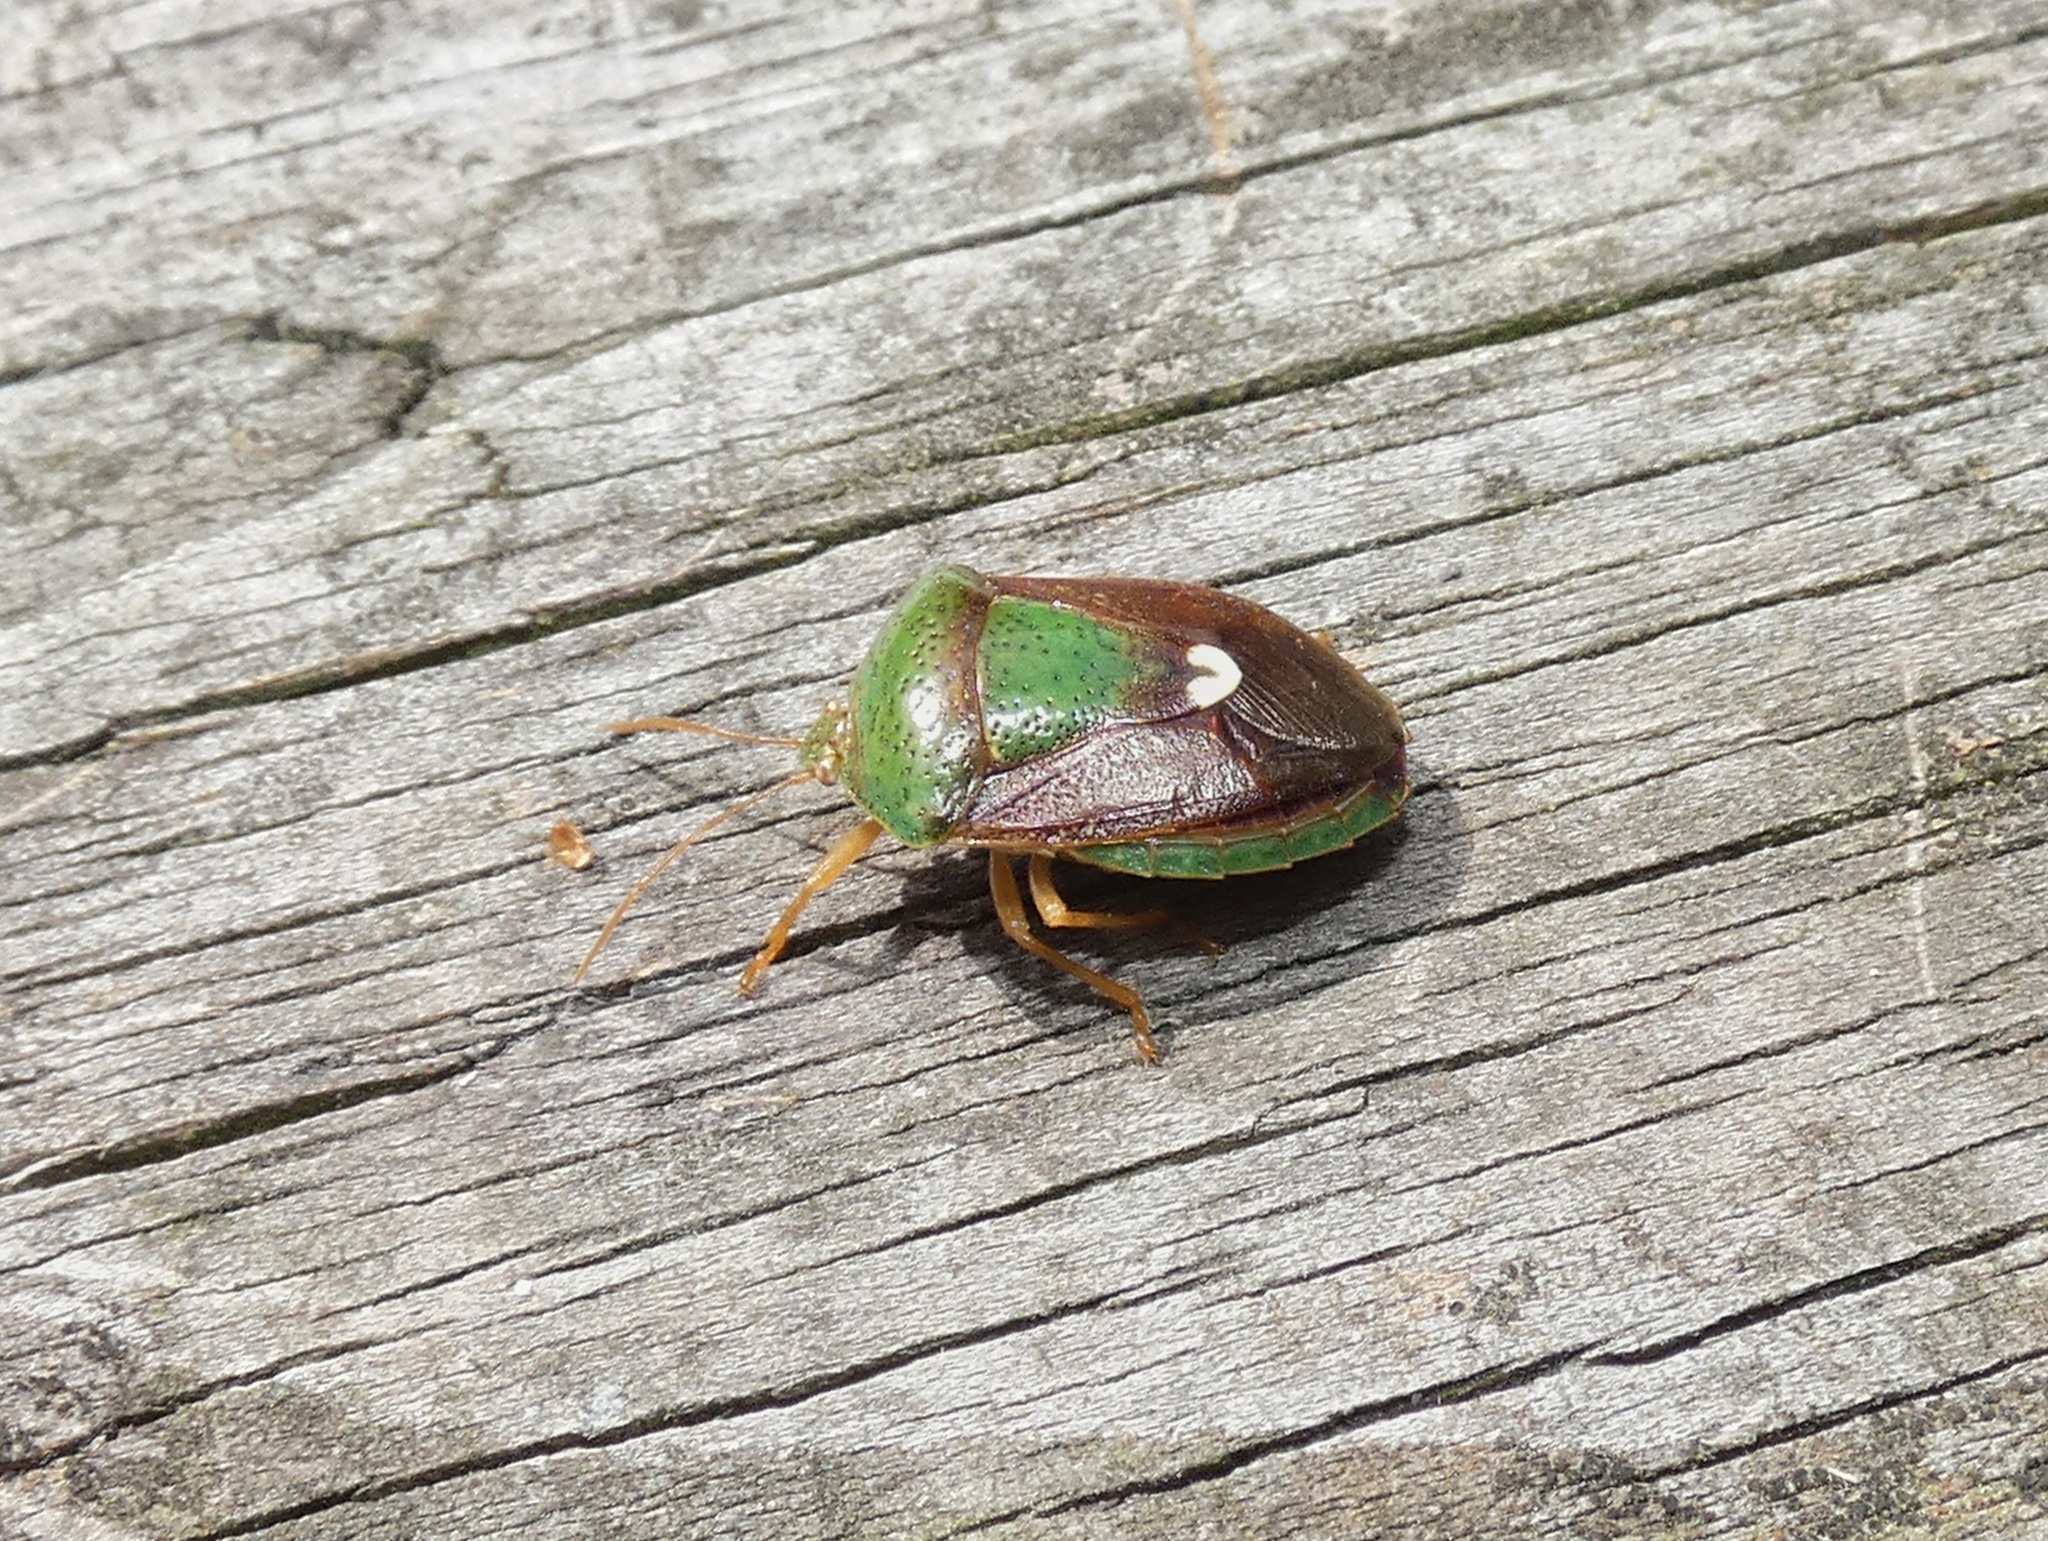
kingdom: Animalia
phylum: Arthropoda
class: Insecta
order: Hemiptera
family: Pentatomidae
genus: Edessa
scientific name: Edessa bifida
